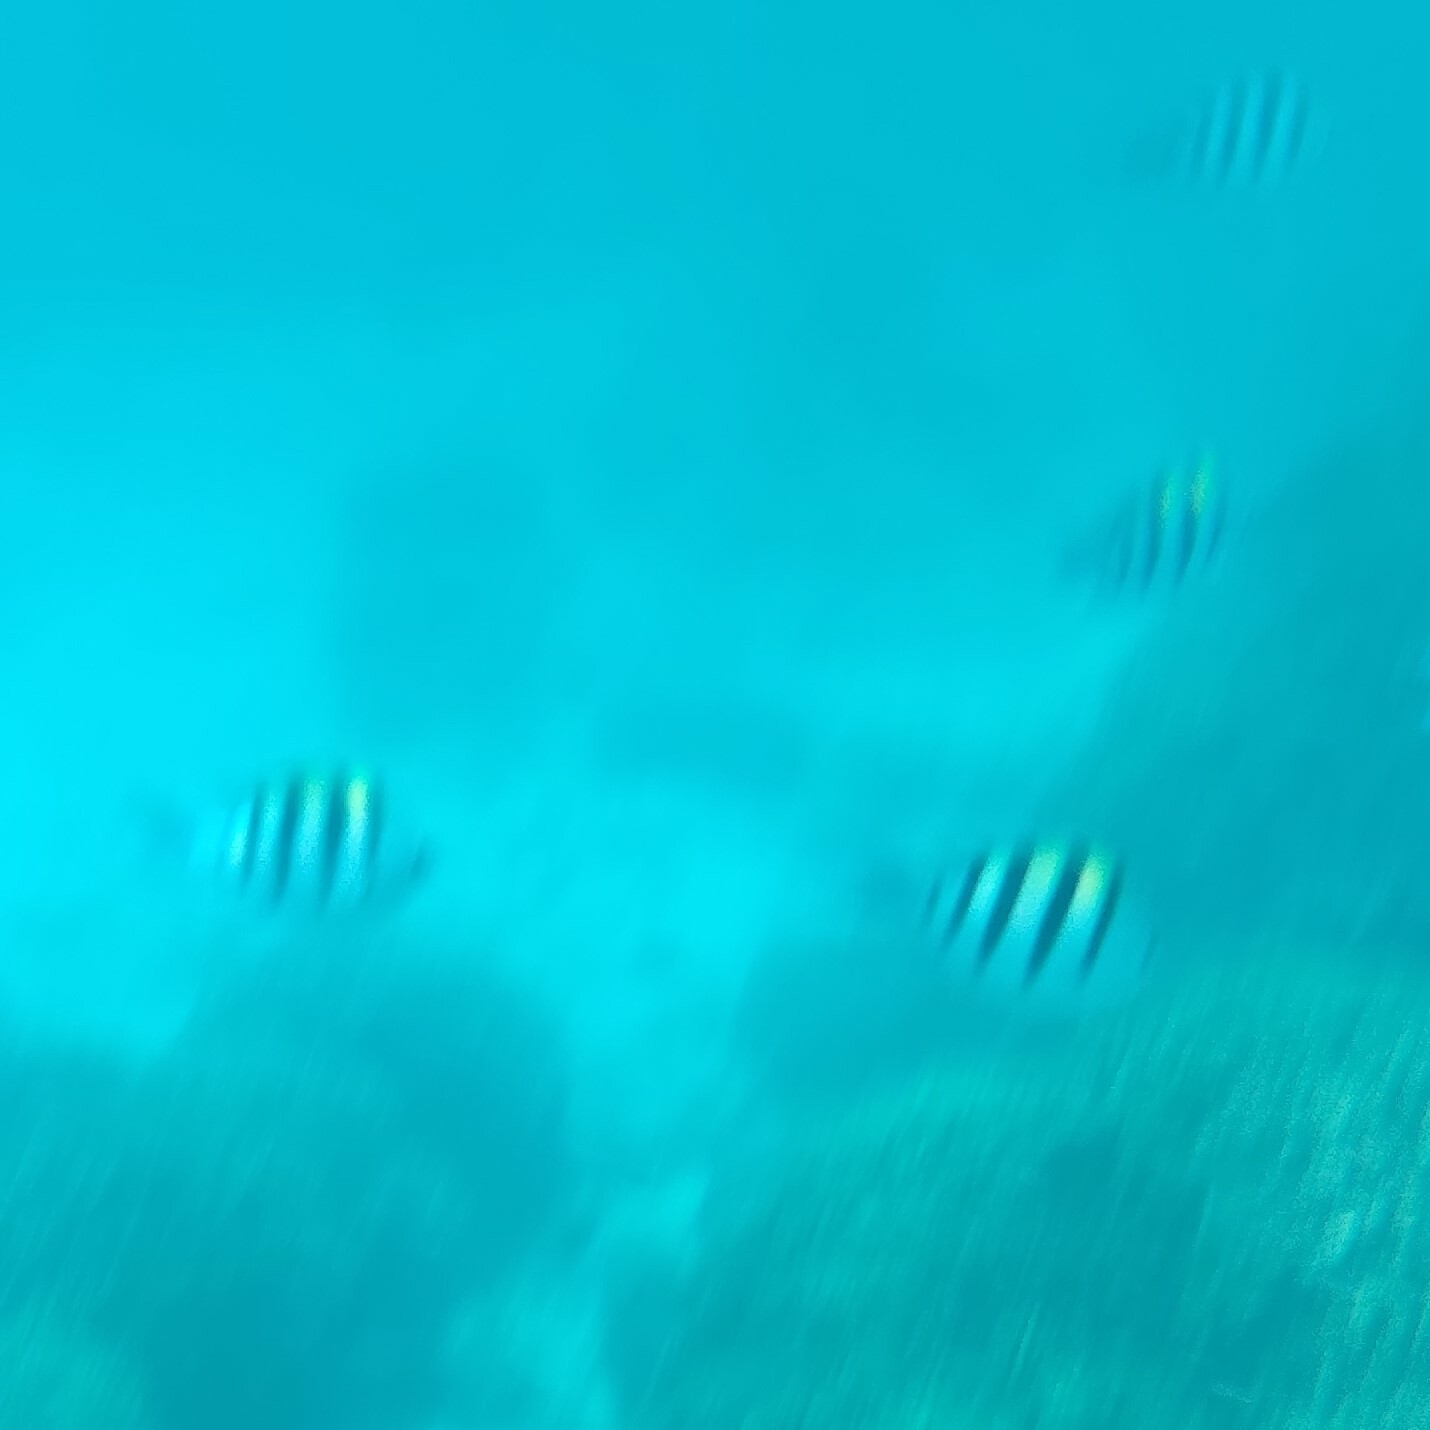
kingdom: Animalia
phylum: Chordata
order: Perciformes
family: Pomacentridae
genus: Abudefduf
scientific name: Abudefduf vaigiensis
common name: Indo-pacific sergeant
